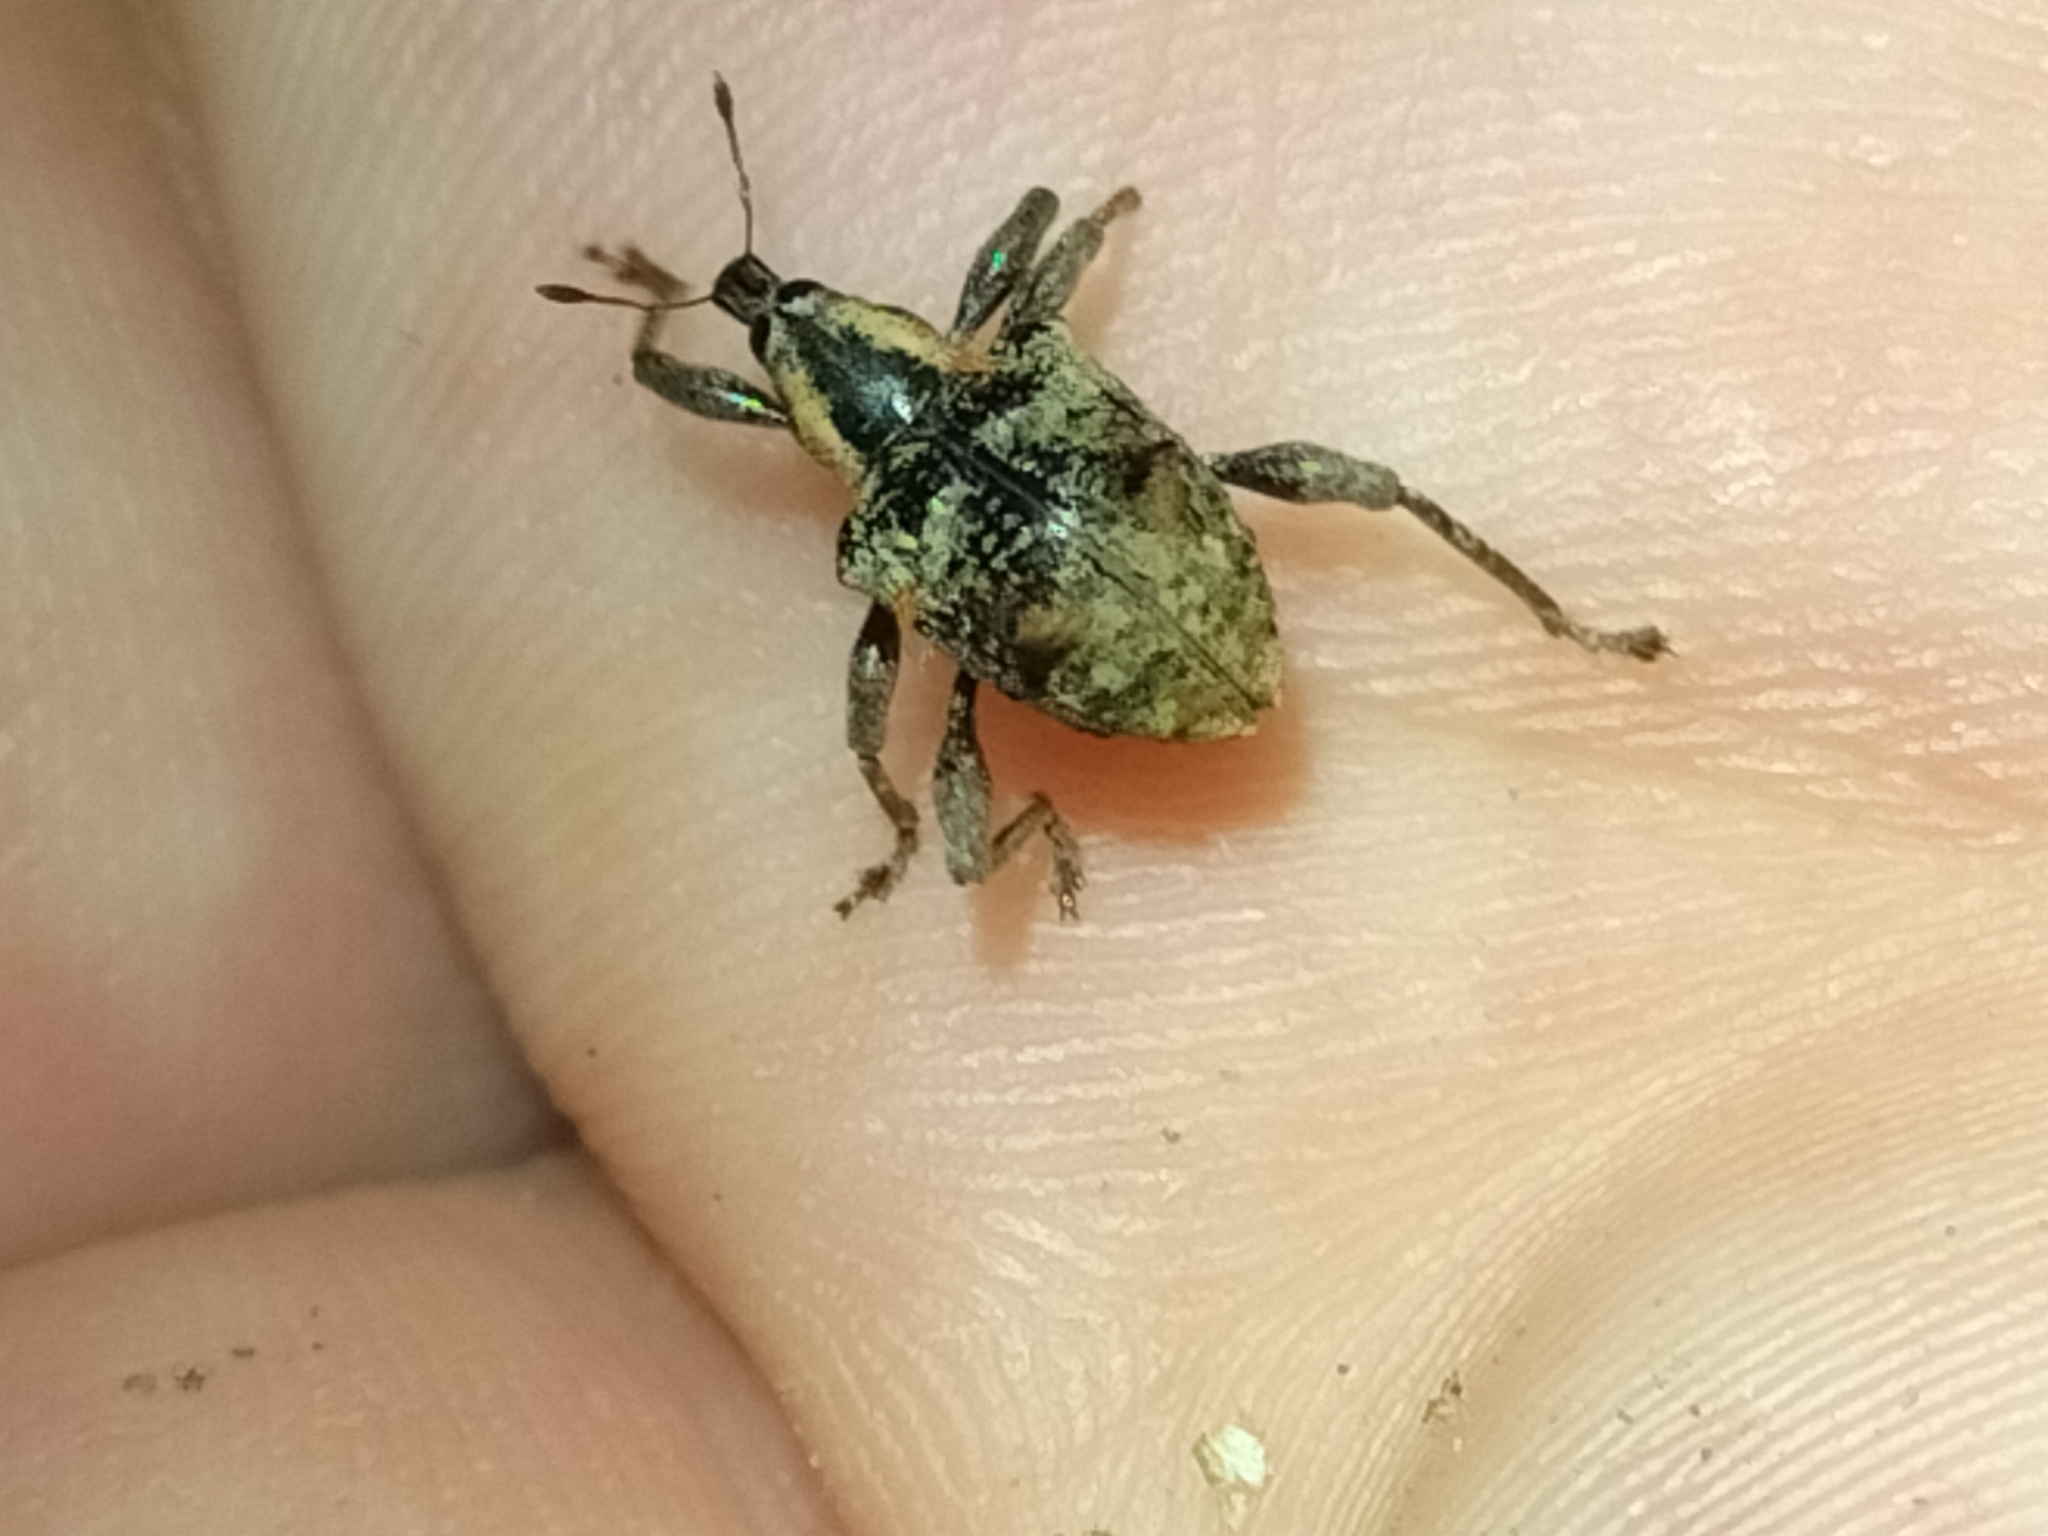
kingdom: Animalia
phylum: Arthropoda
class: Insecta
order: Coleoptera
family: Curculionidae
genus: Eurychirus
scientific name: Eurychirus alleni
